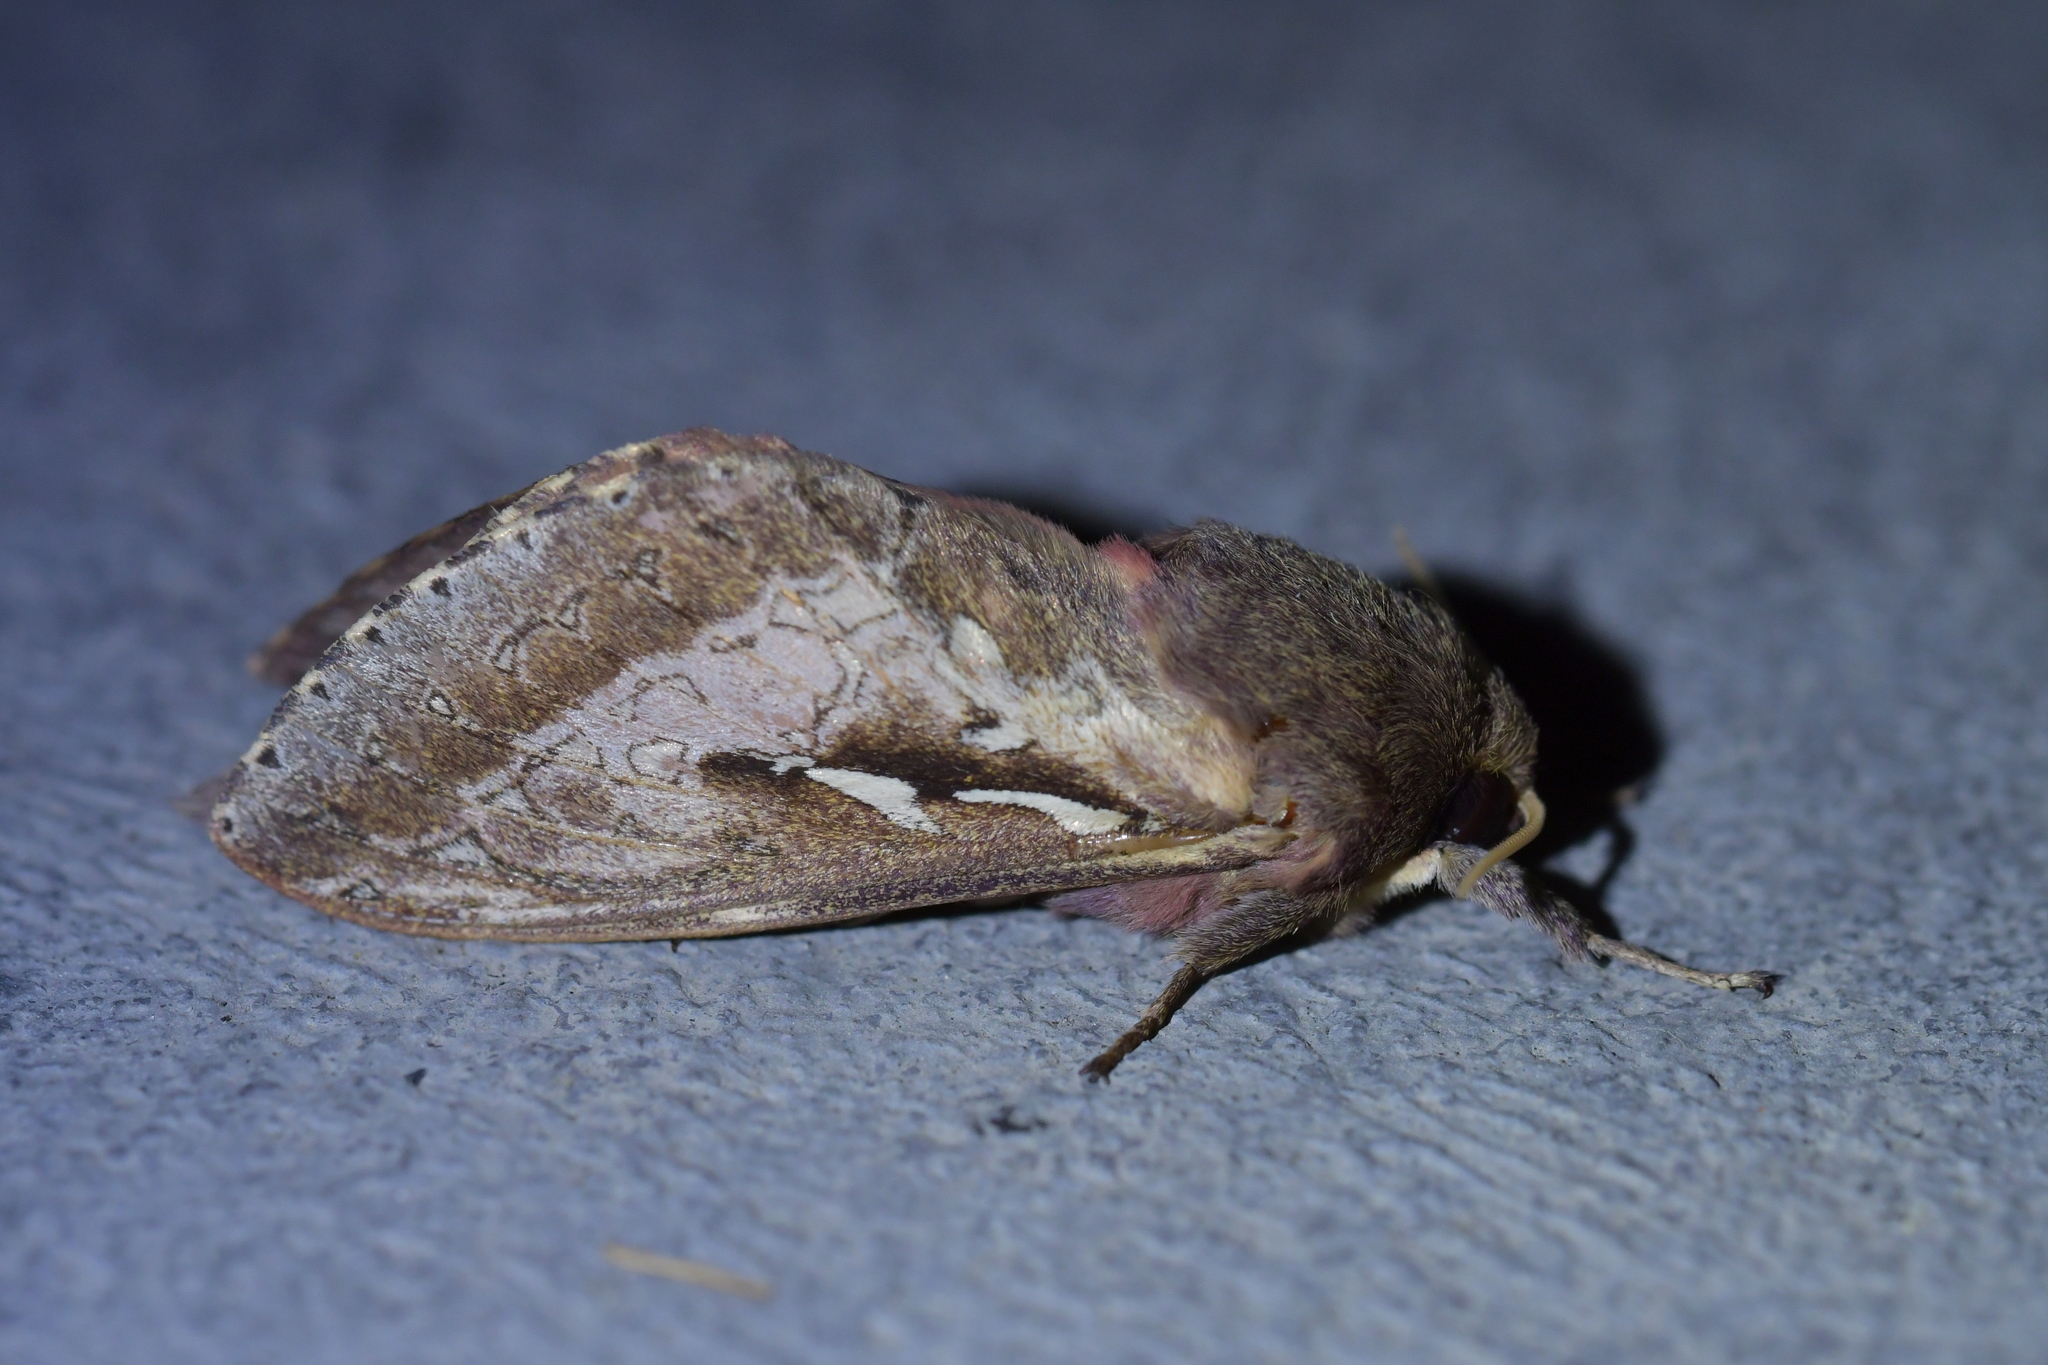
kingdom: Animalia
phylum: Arthropoda
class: Insecta
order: Lepidoptera
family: Hepialidae
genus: Wiseana
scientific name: Wiseana signata
